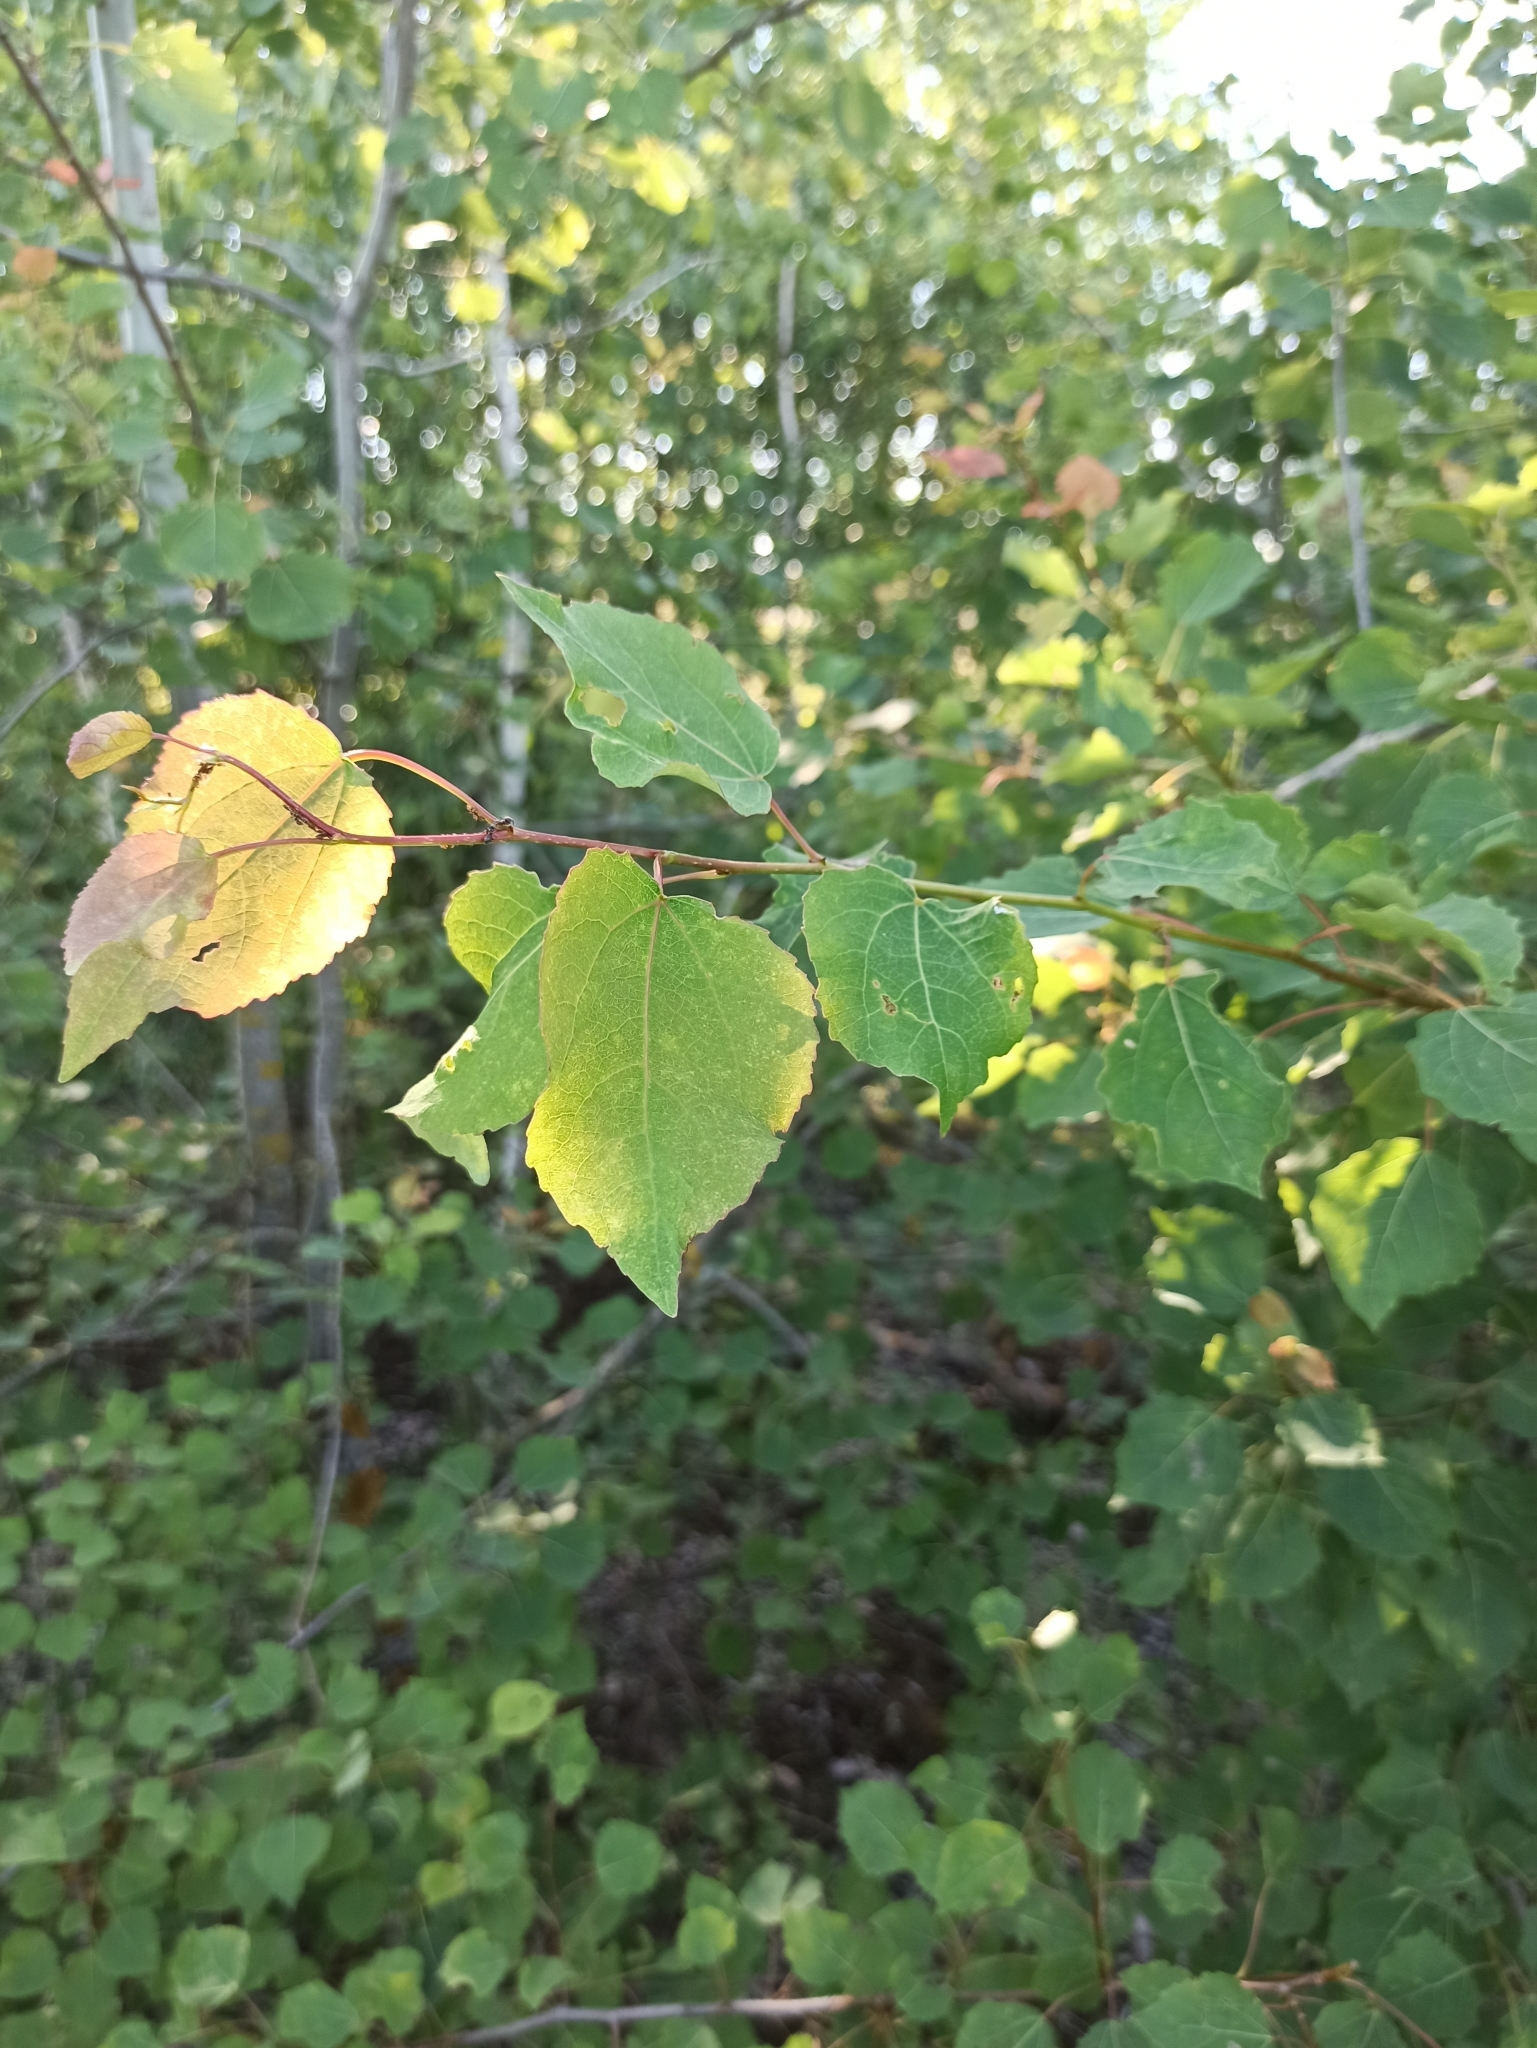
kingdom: Plantae
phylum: Tracheophyta
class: Magnoliopsida
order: Malpighiales
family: Salicaceae
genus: Populus
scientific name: Populus tremula
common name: European aspen
